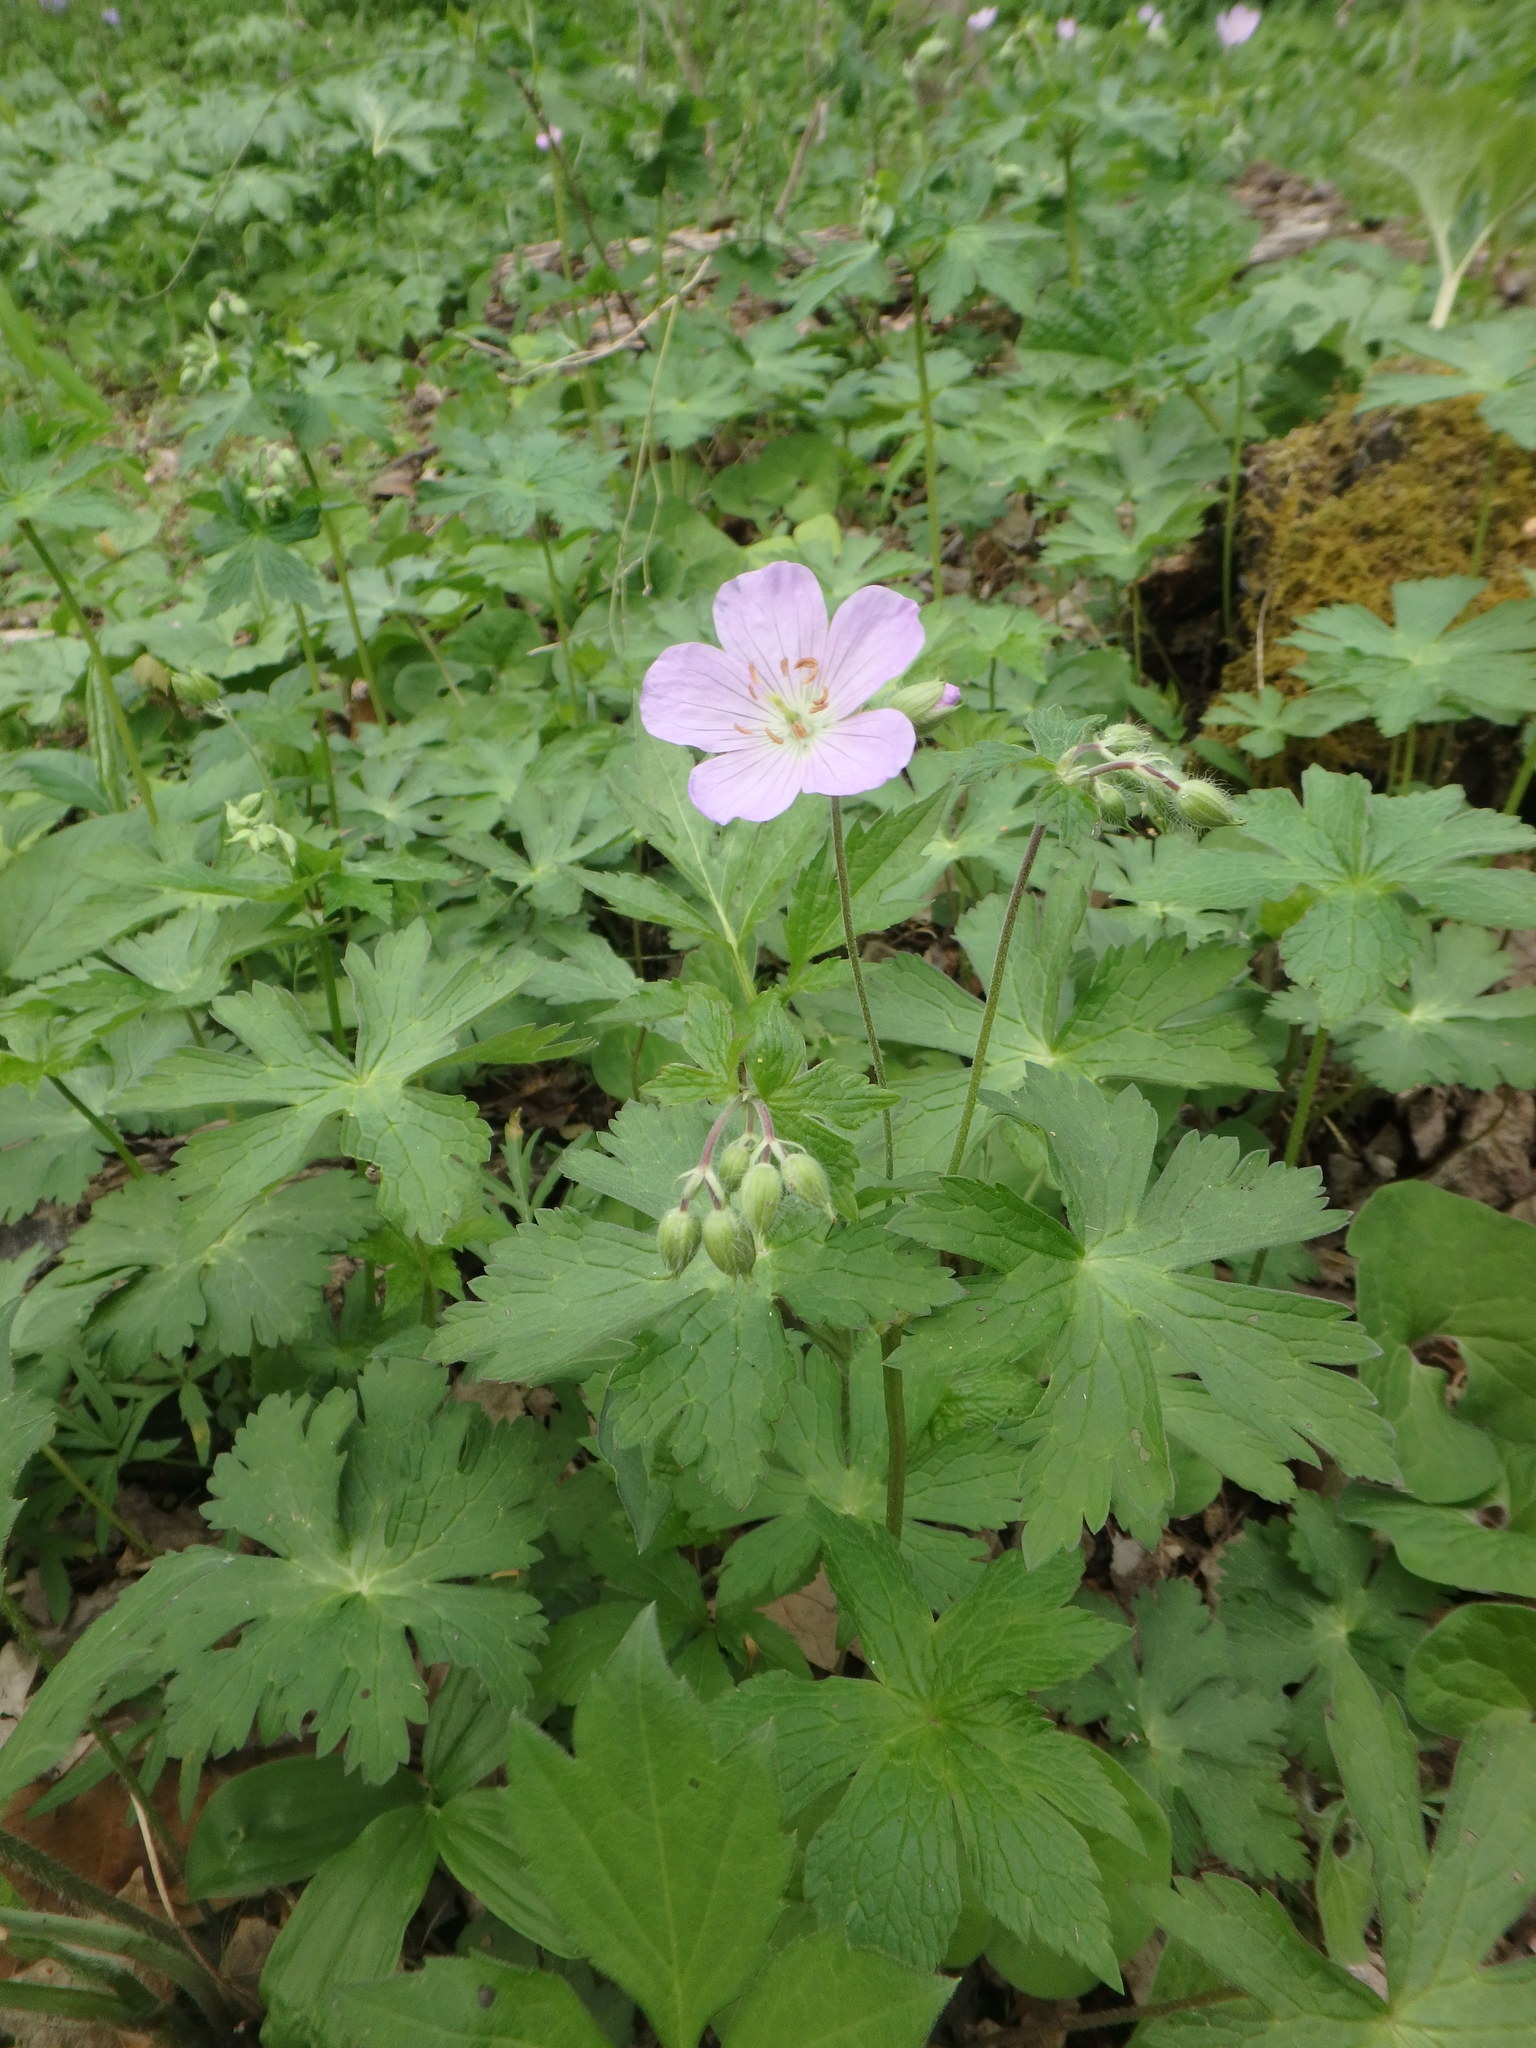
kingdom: Plantae
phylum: Tracheophyta
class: Magnoliopsida
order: Geraniales
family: Geraniaceae
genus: Geranium
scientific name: Geranium maculatum
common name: Spotted geranium
